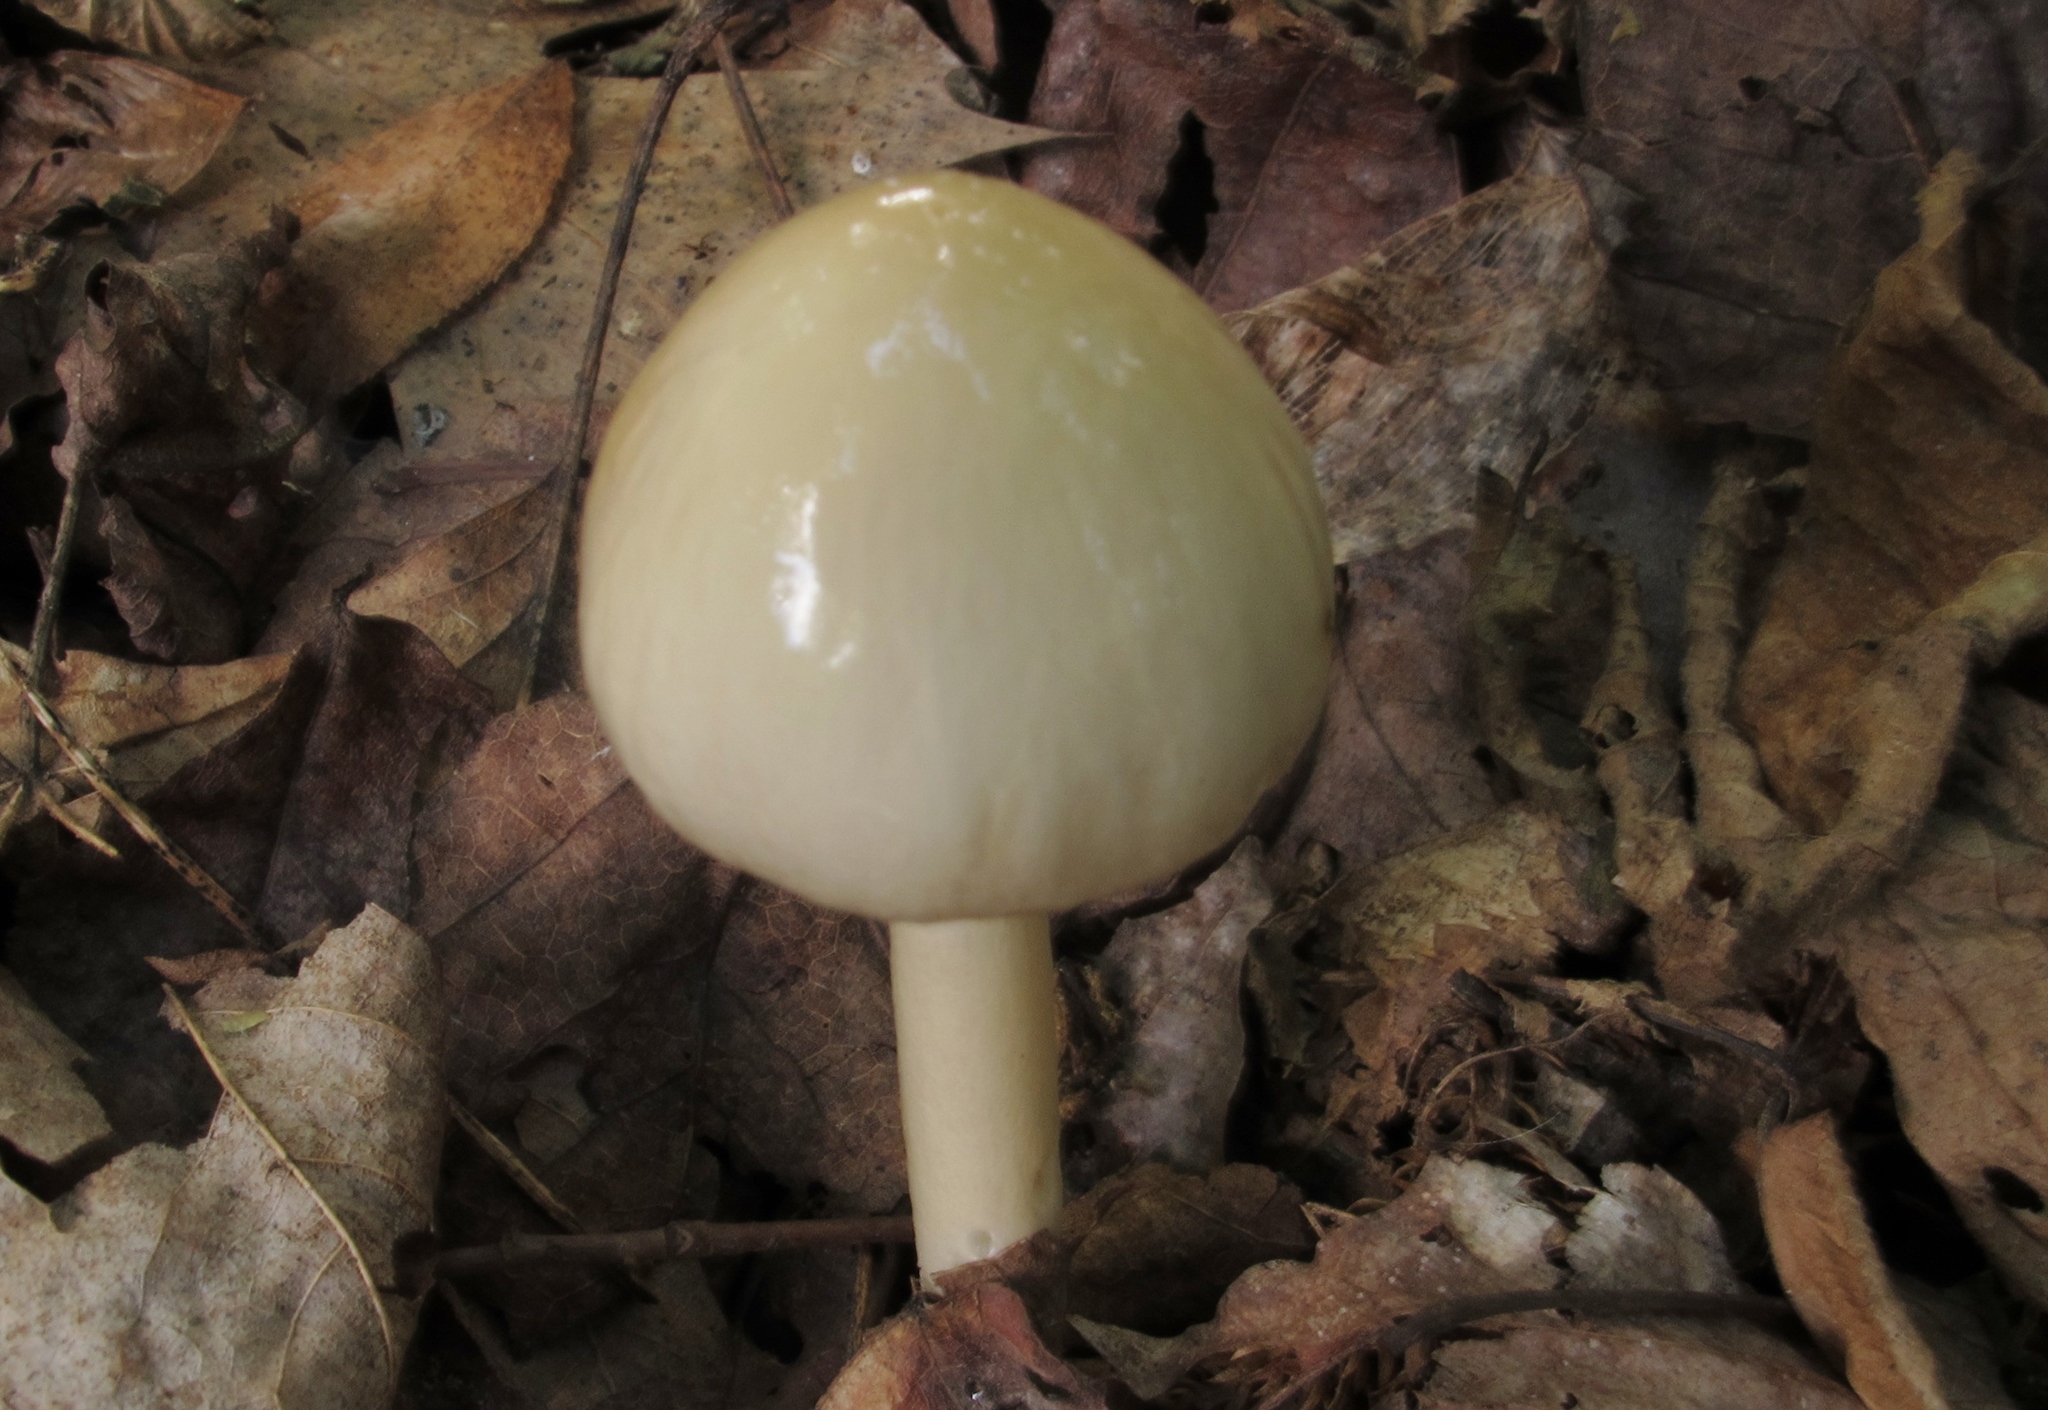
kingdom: Fungi
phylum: Basidiomycota
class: Agaricomycetes
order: Agaricales
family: Amanitaceae
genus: Zhuliangomyces
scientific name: Zhuliangomyces illinitus
